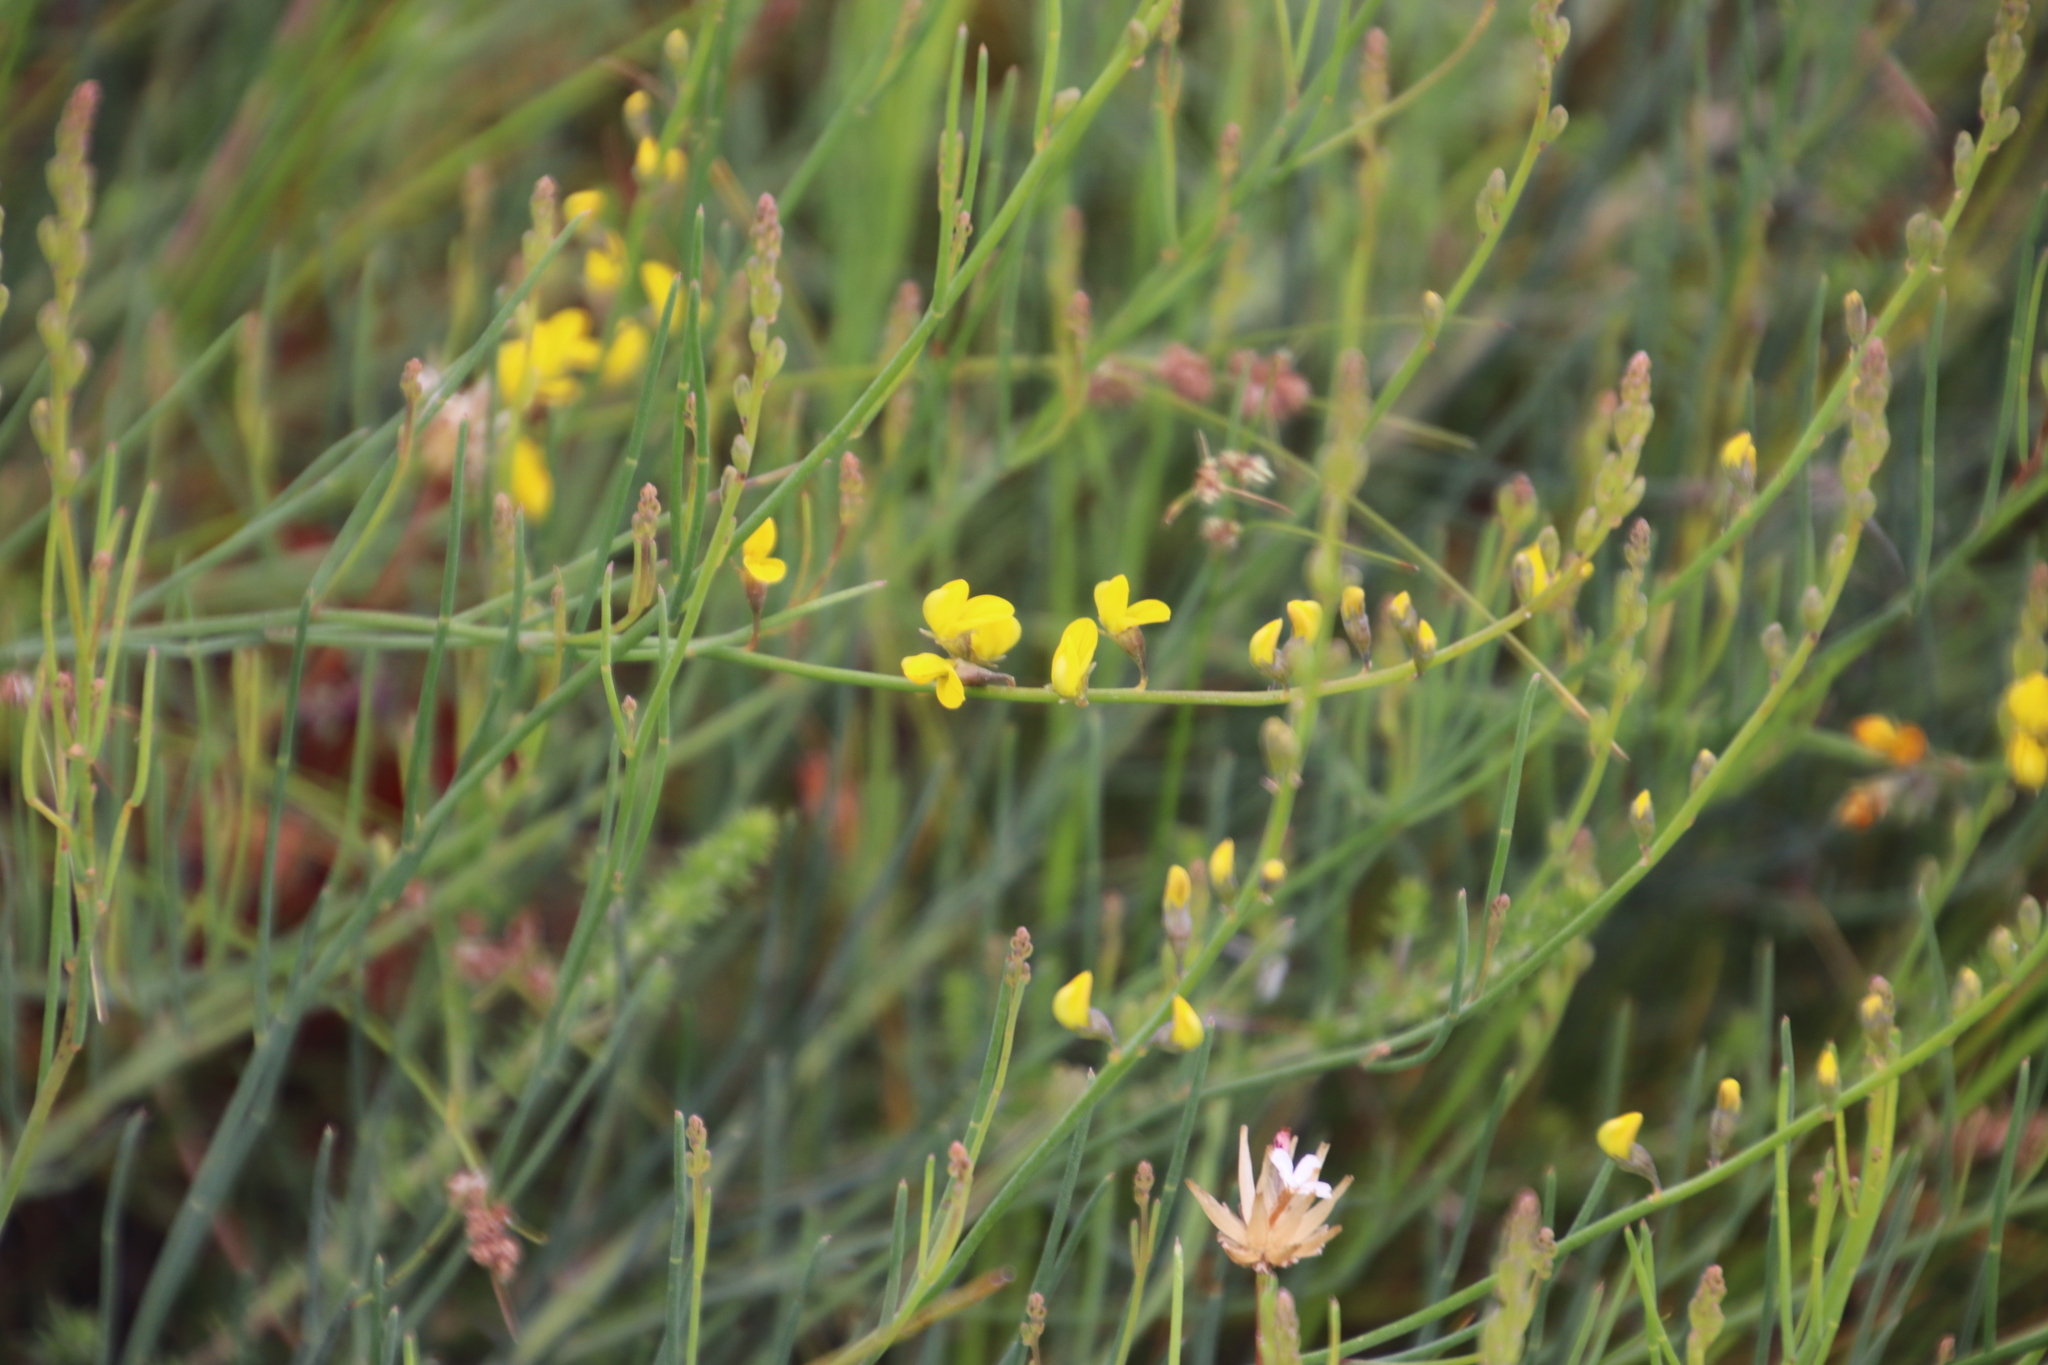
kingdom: Plantae
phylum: Tracheophyta
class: Magnoliopsida
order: Fabales
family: Fabaceae
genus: Lebeckia
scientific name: Lebeckia contaminata
